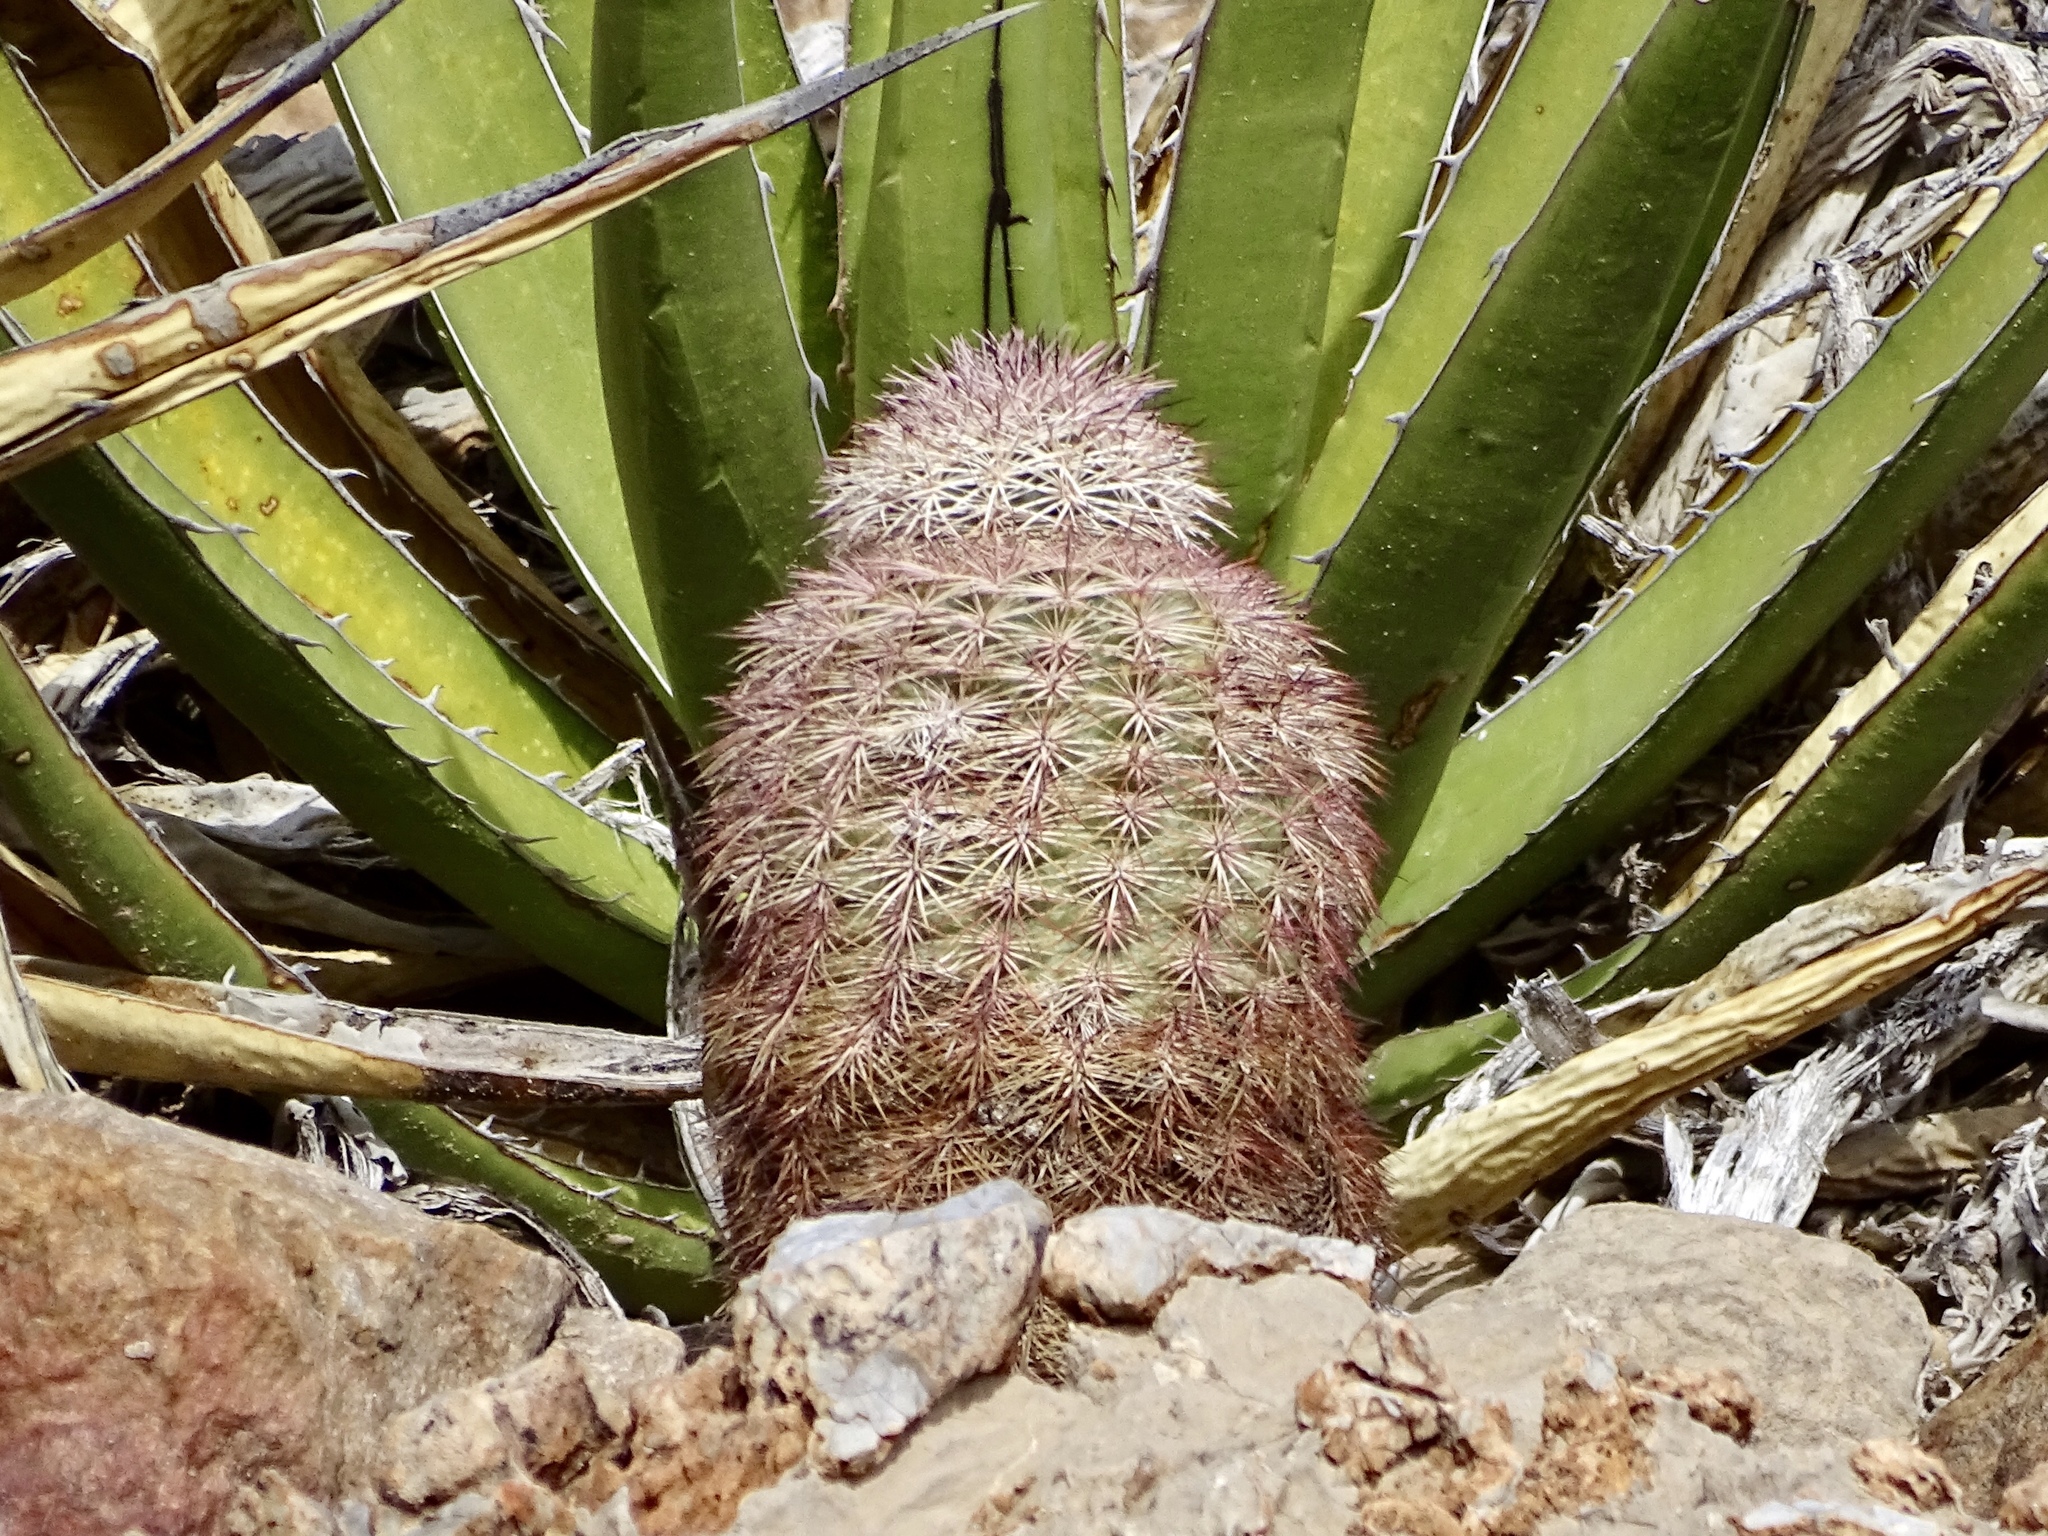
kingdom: Plantae
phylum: Tracheophyta
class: Magnoliopsida
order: Caryophyllales
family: Cactaceae
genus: Echinocereus
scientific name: Echinocereus dasyacanthus
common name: Spiny hedgehog cactus
